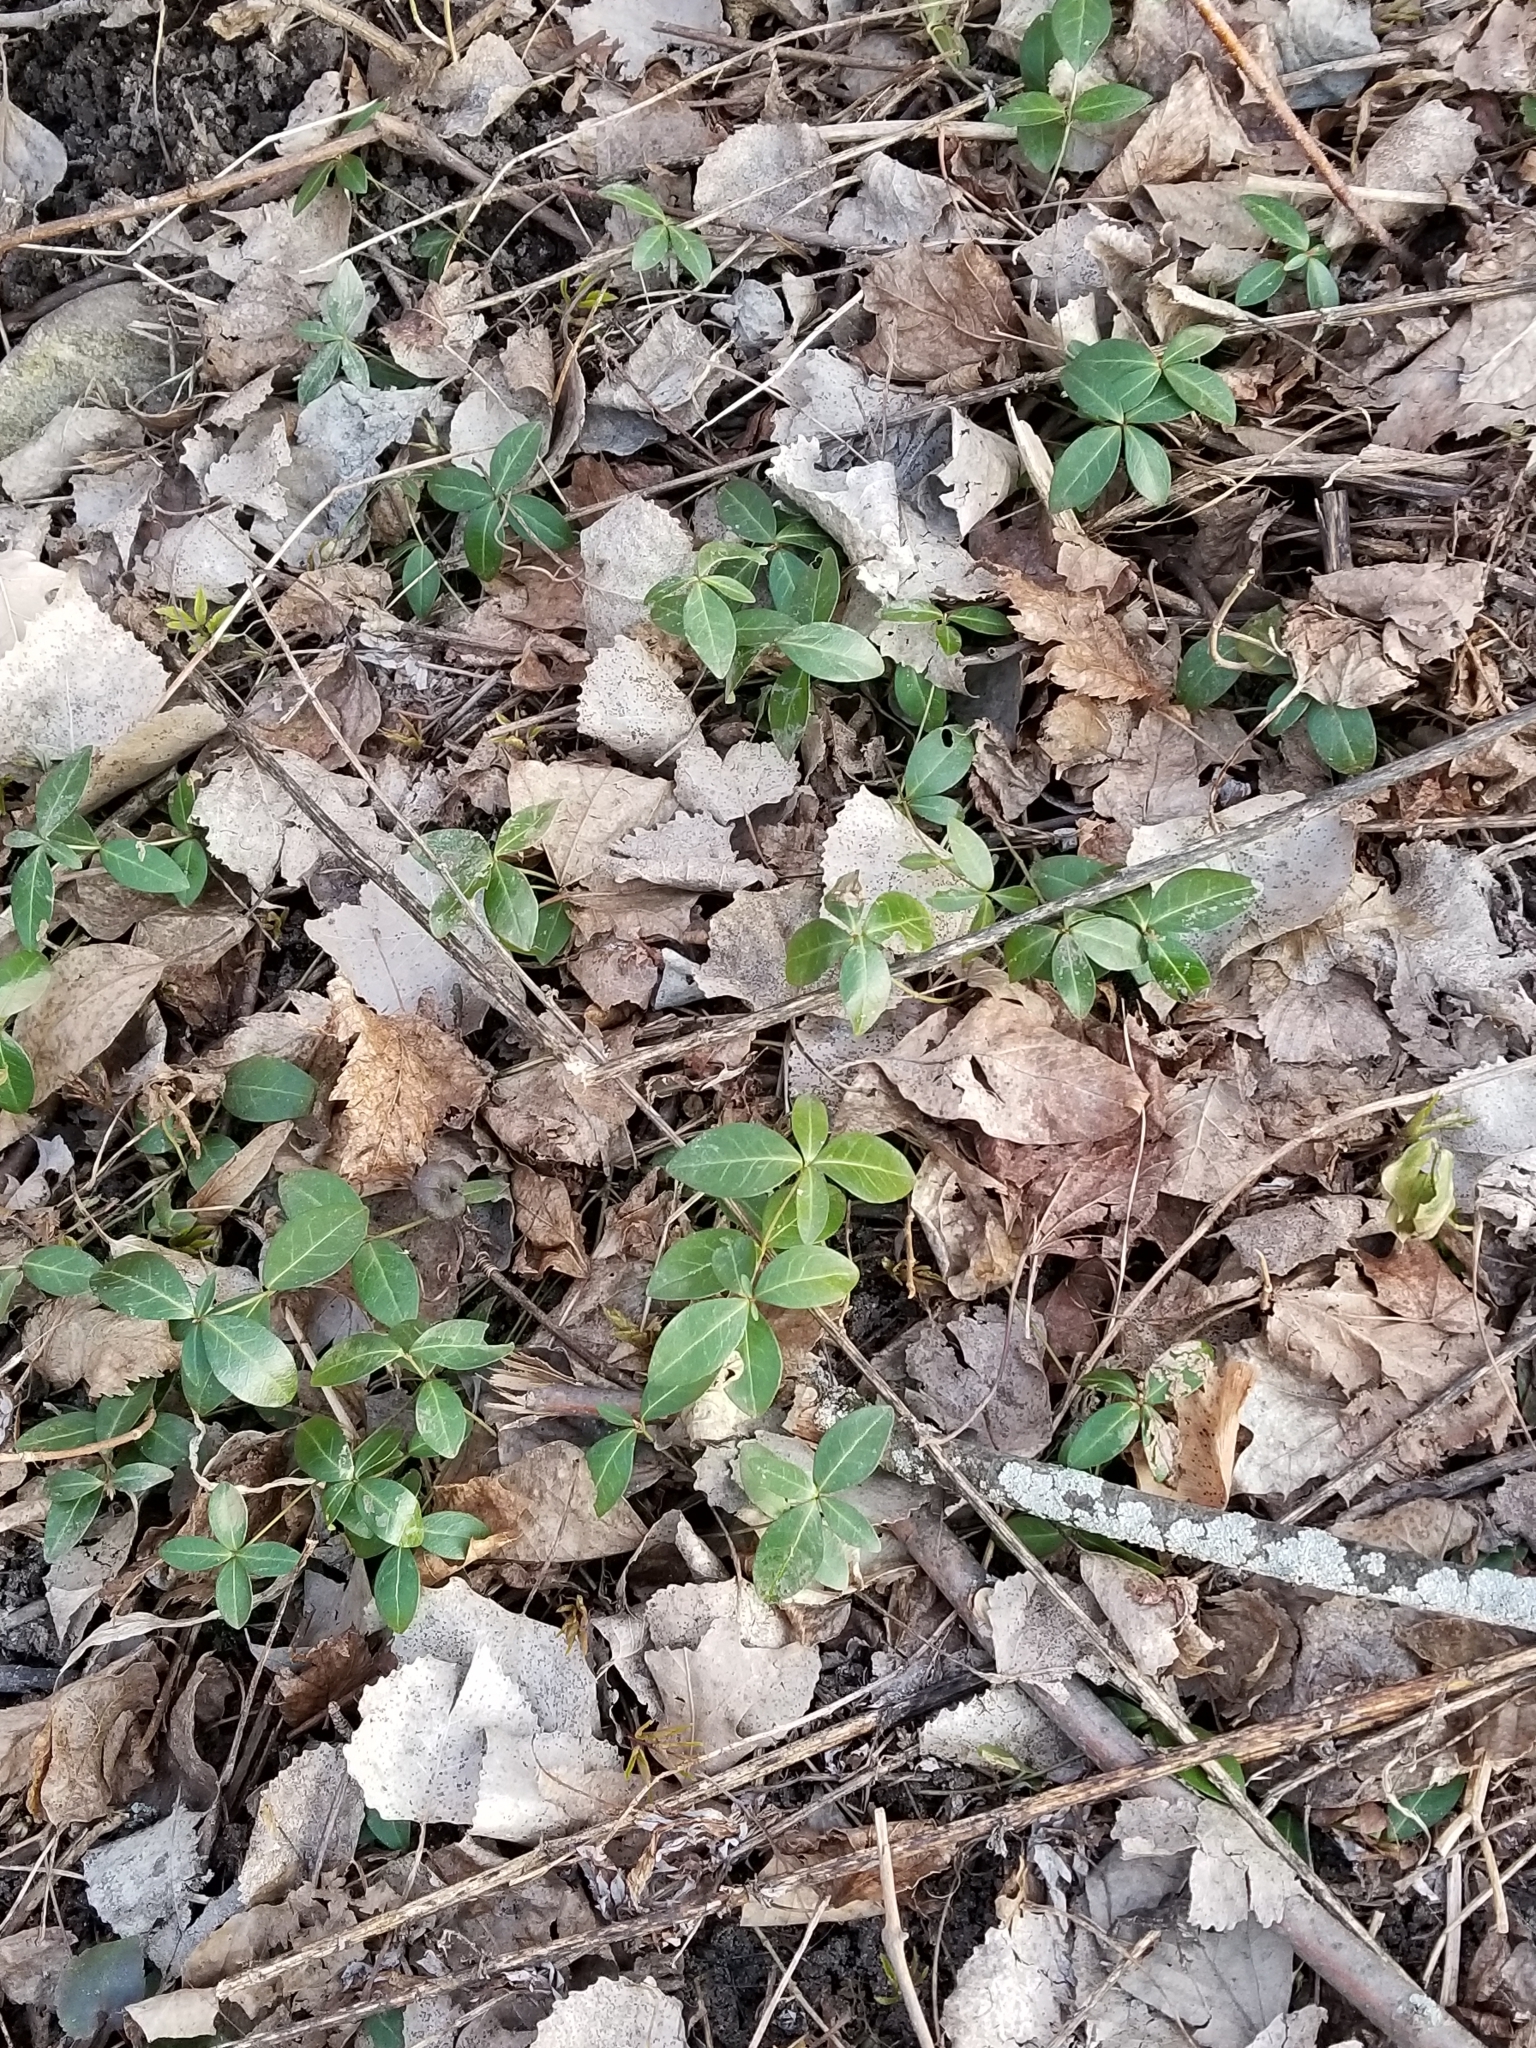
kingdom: Plantae
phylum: Tracheophyta
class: Magnoliopsida
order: Gentianales
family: Apocynaceae
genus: Vinca
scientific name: Vinca minor
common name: Lesser periwinkle
